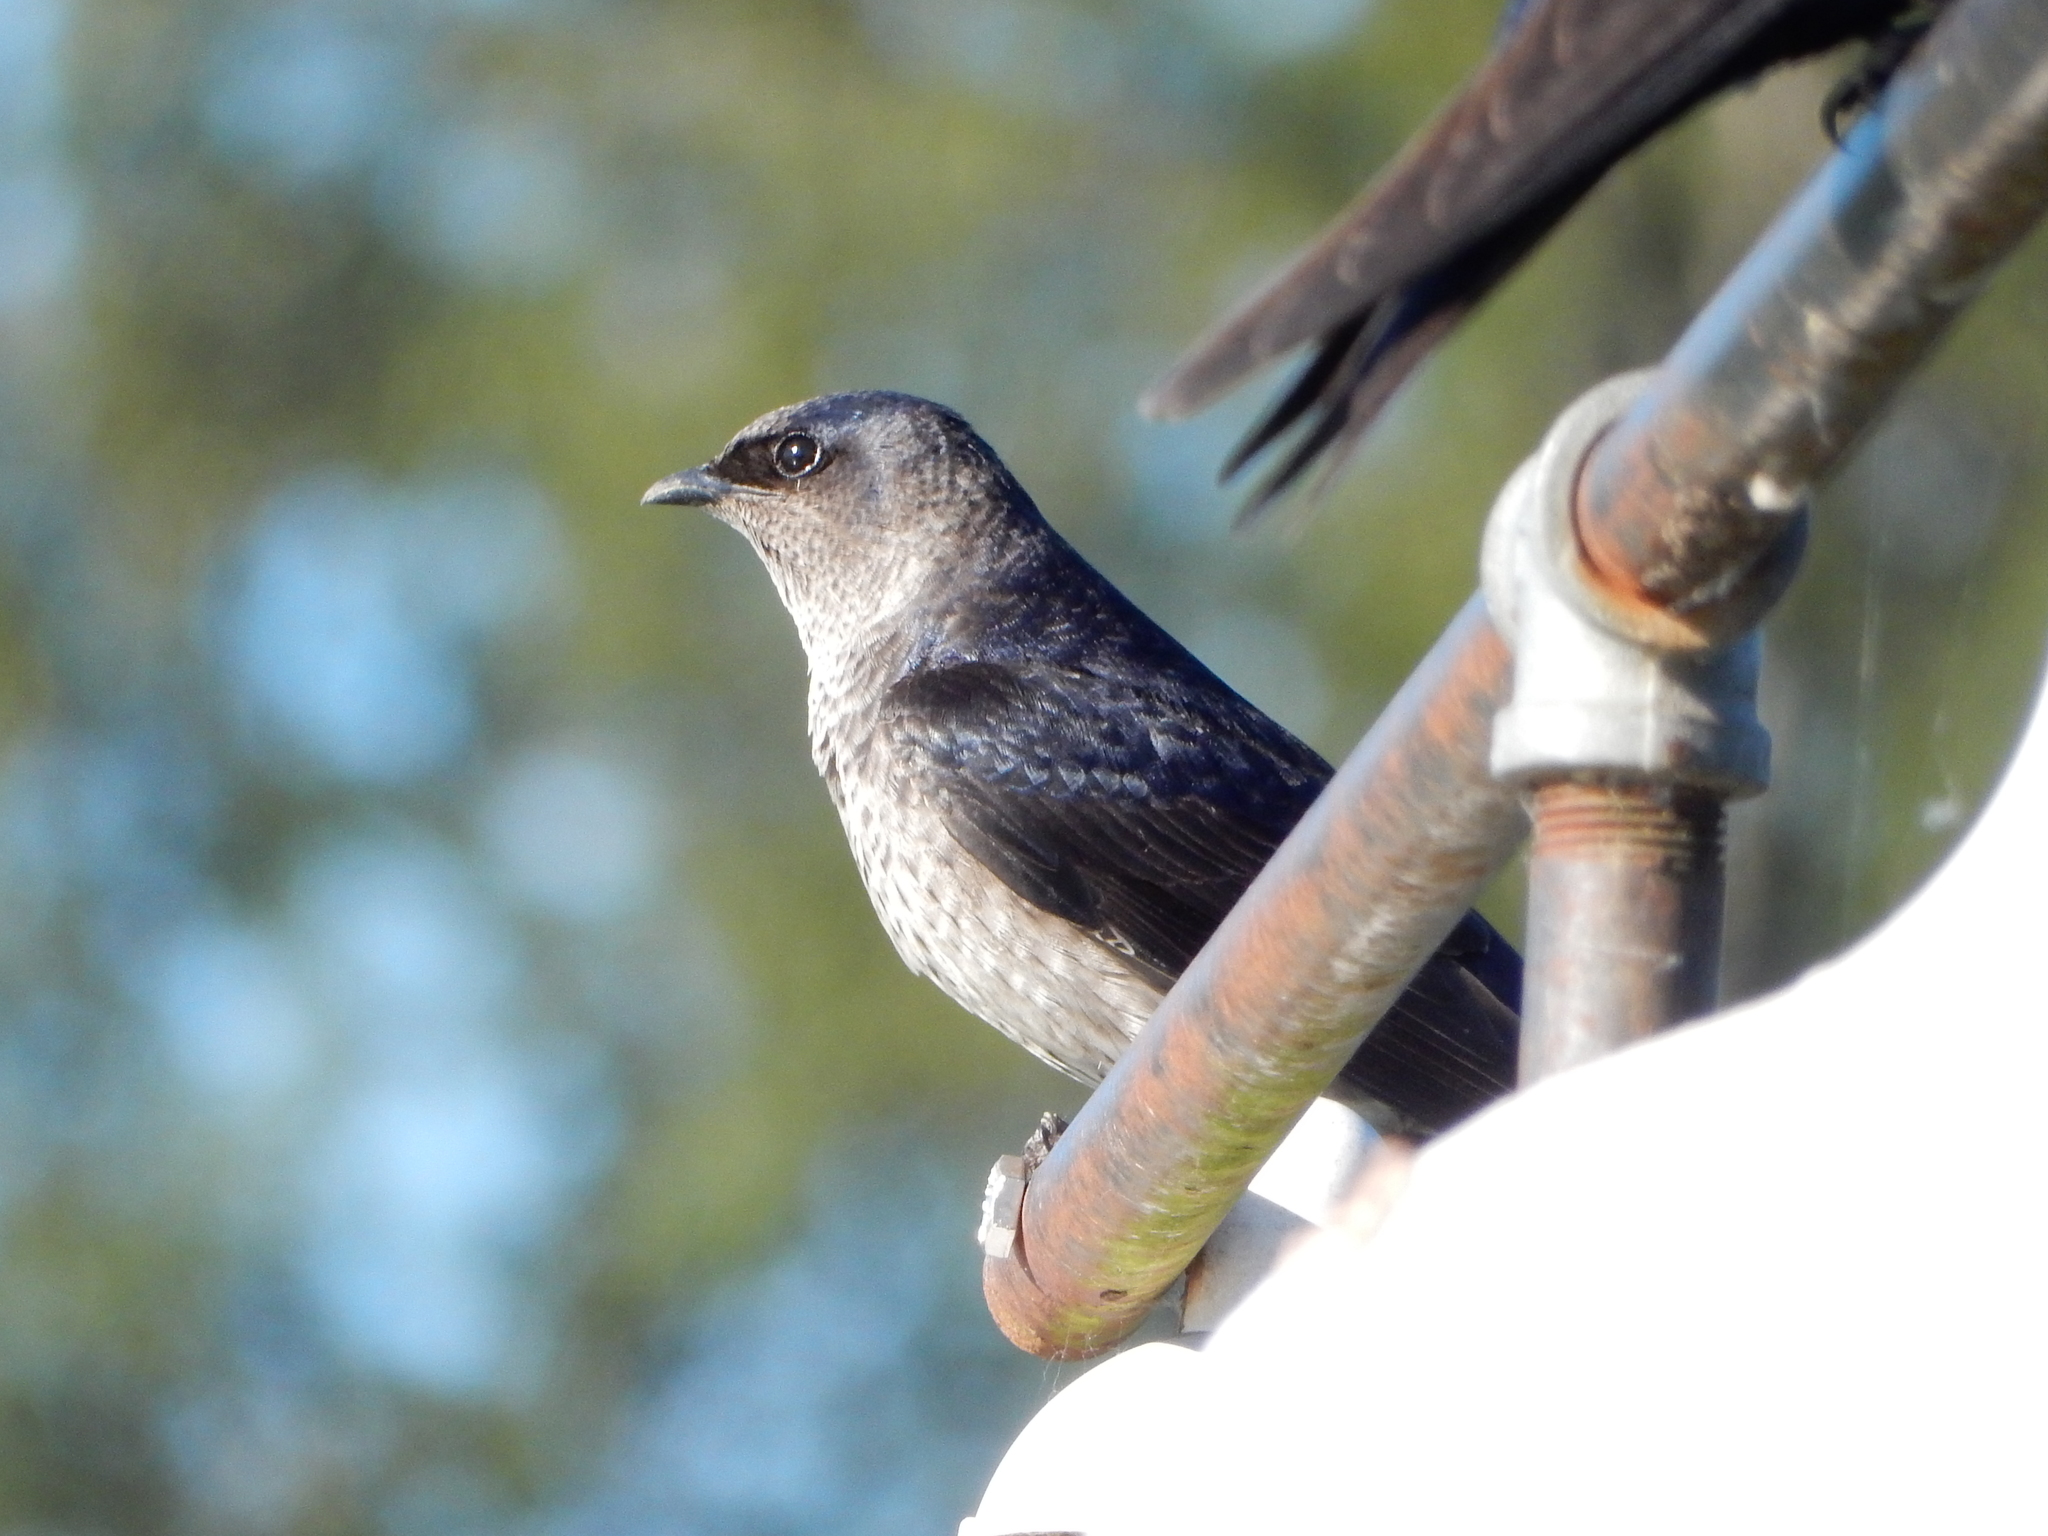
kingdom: Animalia
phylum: Chordata
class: Aves
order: Passeriformes
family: Hirundinidae
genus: Progne
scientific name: Progne subis
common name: Purple martin
